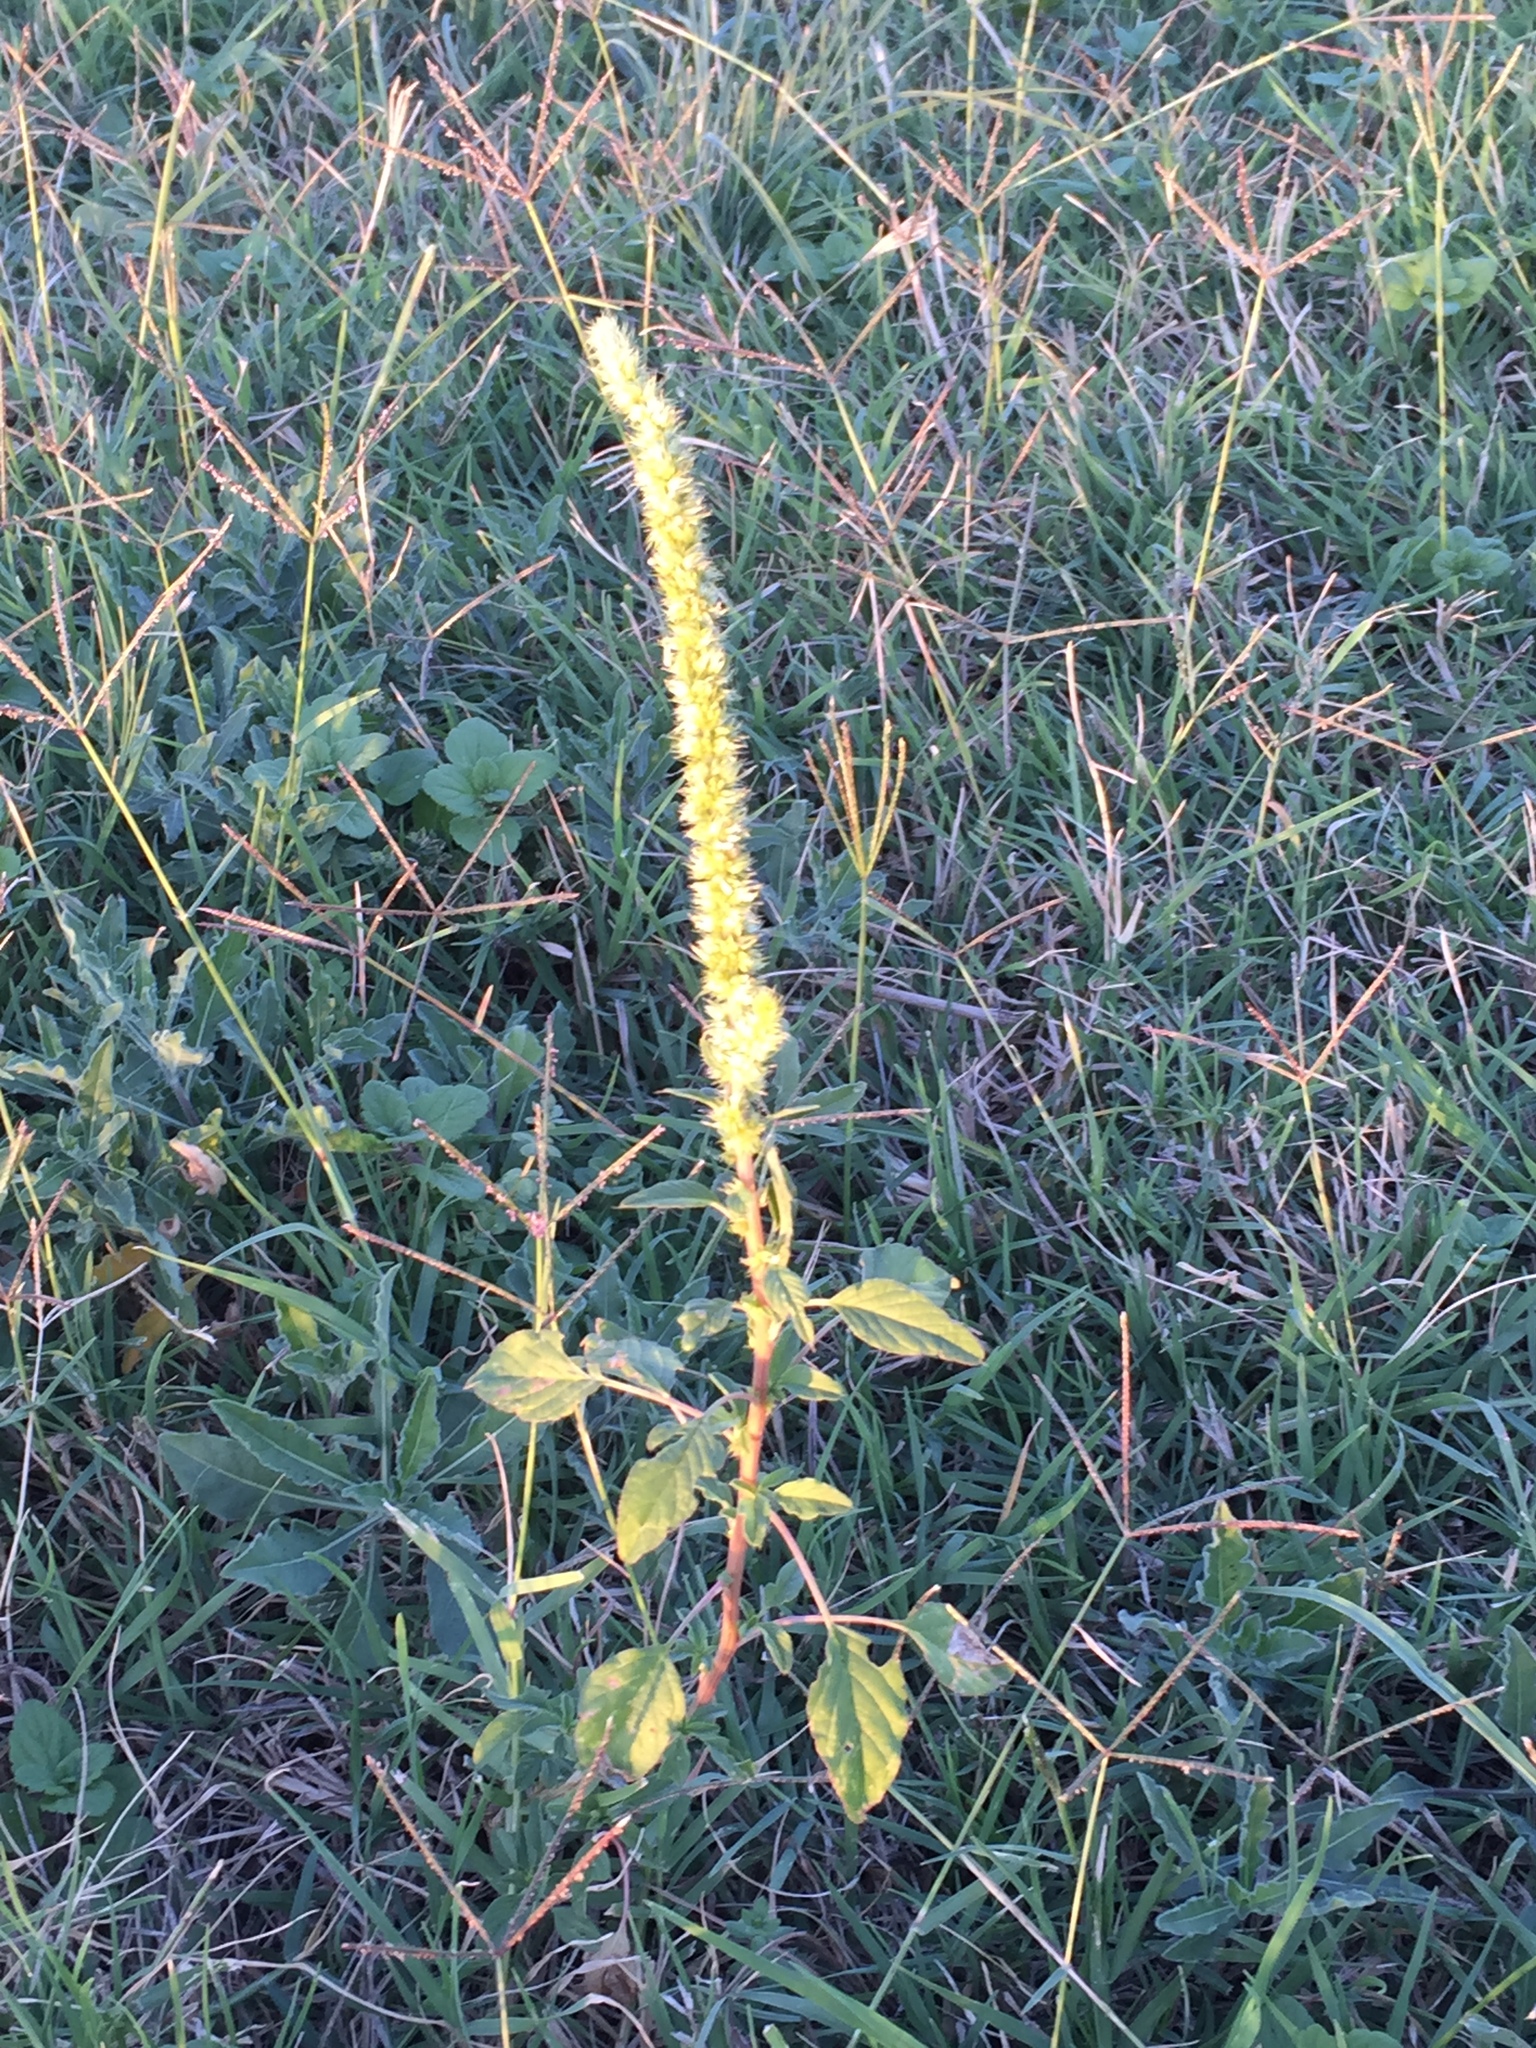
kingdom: Plantae
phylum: Tracheophyta
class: Magnoliopsida
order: Caryophyllales
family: Amaranthaceae
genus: Amaranthus
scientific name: Amaranthus palmeri
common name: Dioecious amaranth
